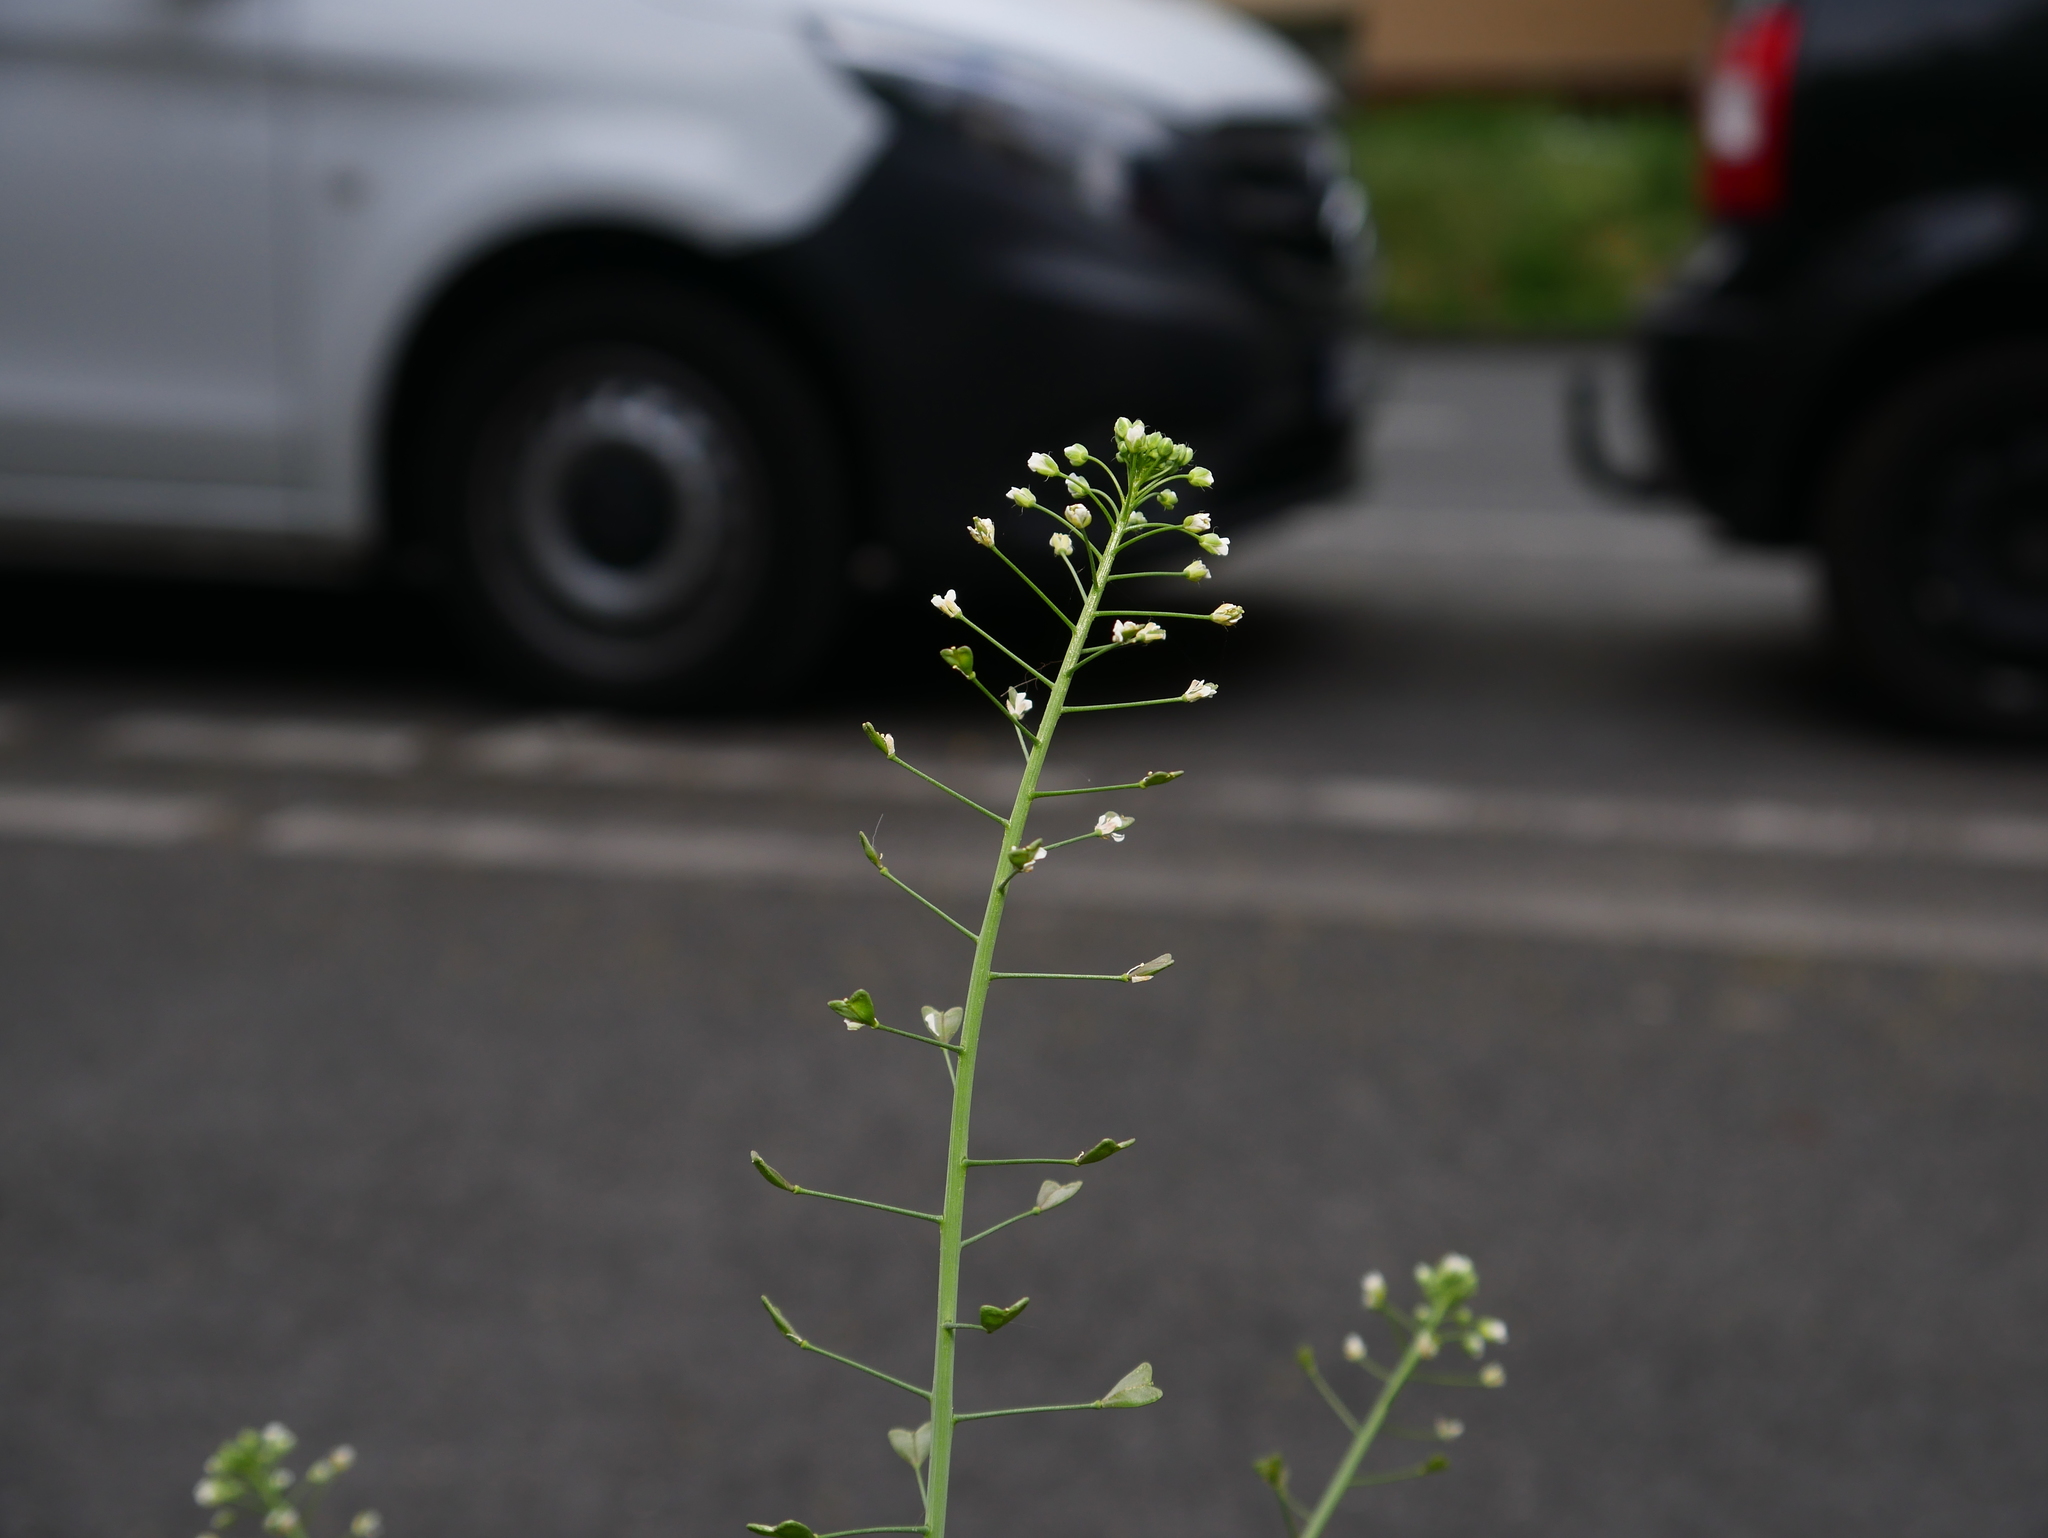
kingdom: Plantae
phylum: Tracheophyta
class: Magnoliopsida
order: Brassicales
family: Brassicaceae
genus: Capsella
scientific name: Capsella bursa-pastoris
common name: Shepherd's purse
